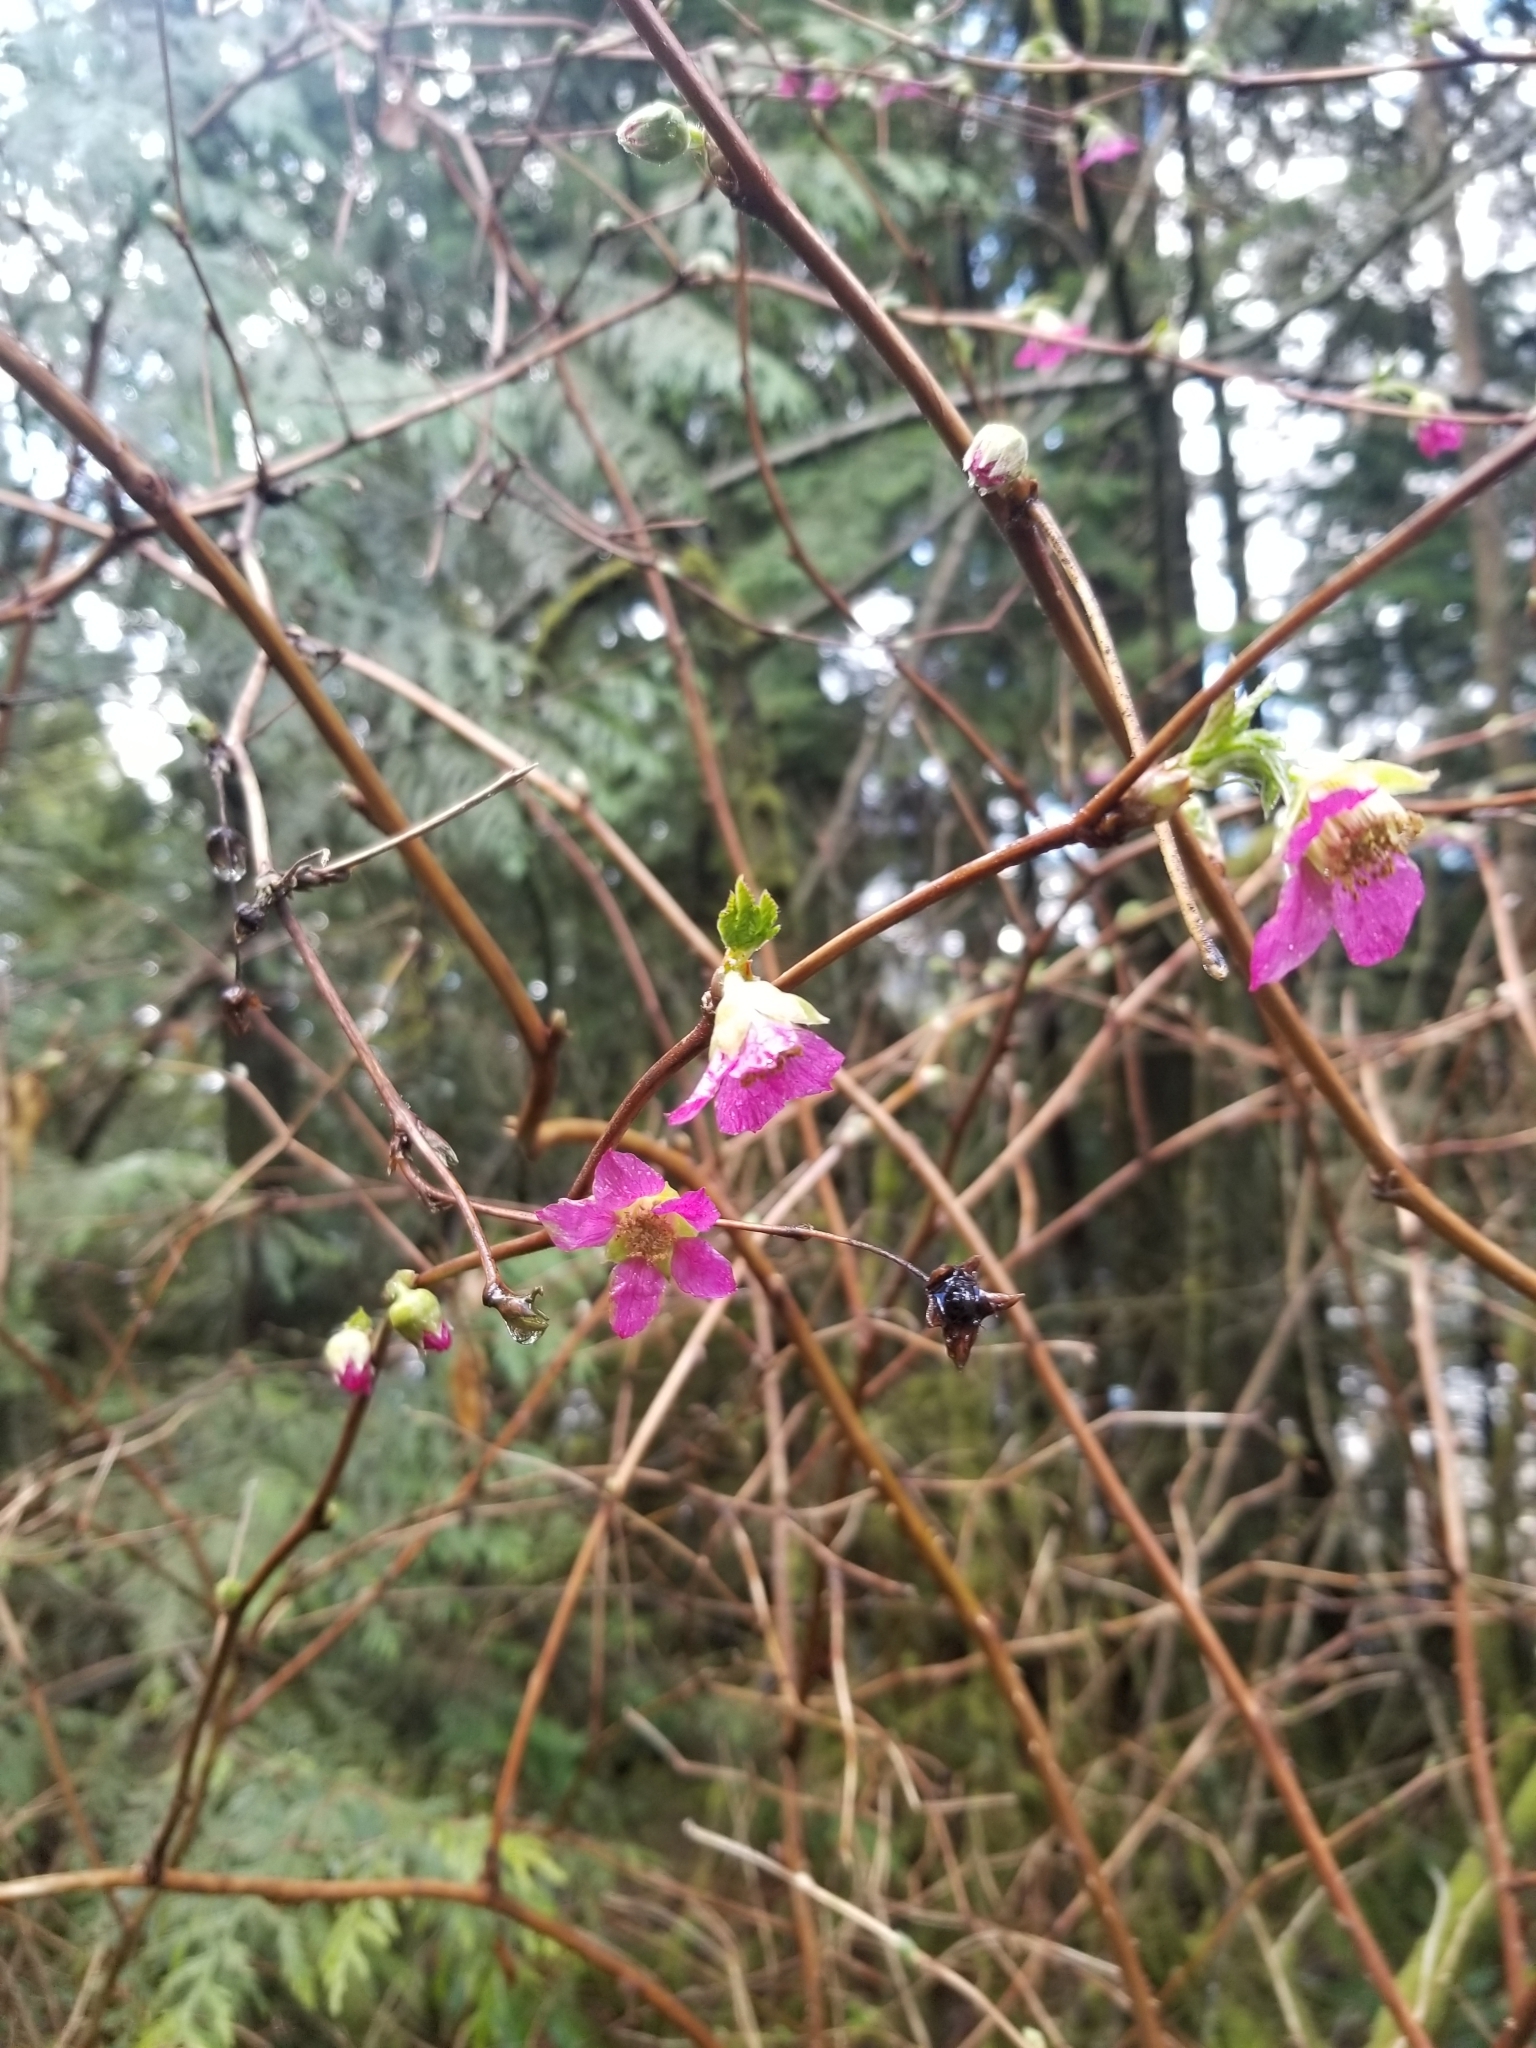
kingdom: Plantae
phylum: Tracheophyta
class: Magnoliopsida
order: Rosales
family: Rosaceae
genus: Rubus
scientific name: Rubus spectabilis
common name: Salmonberry
